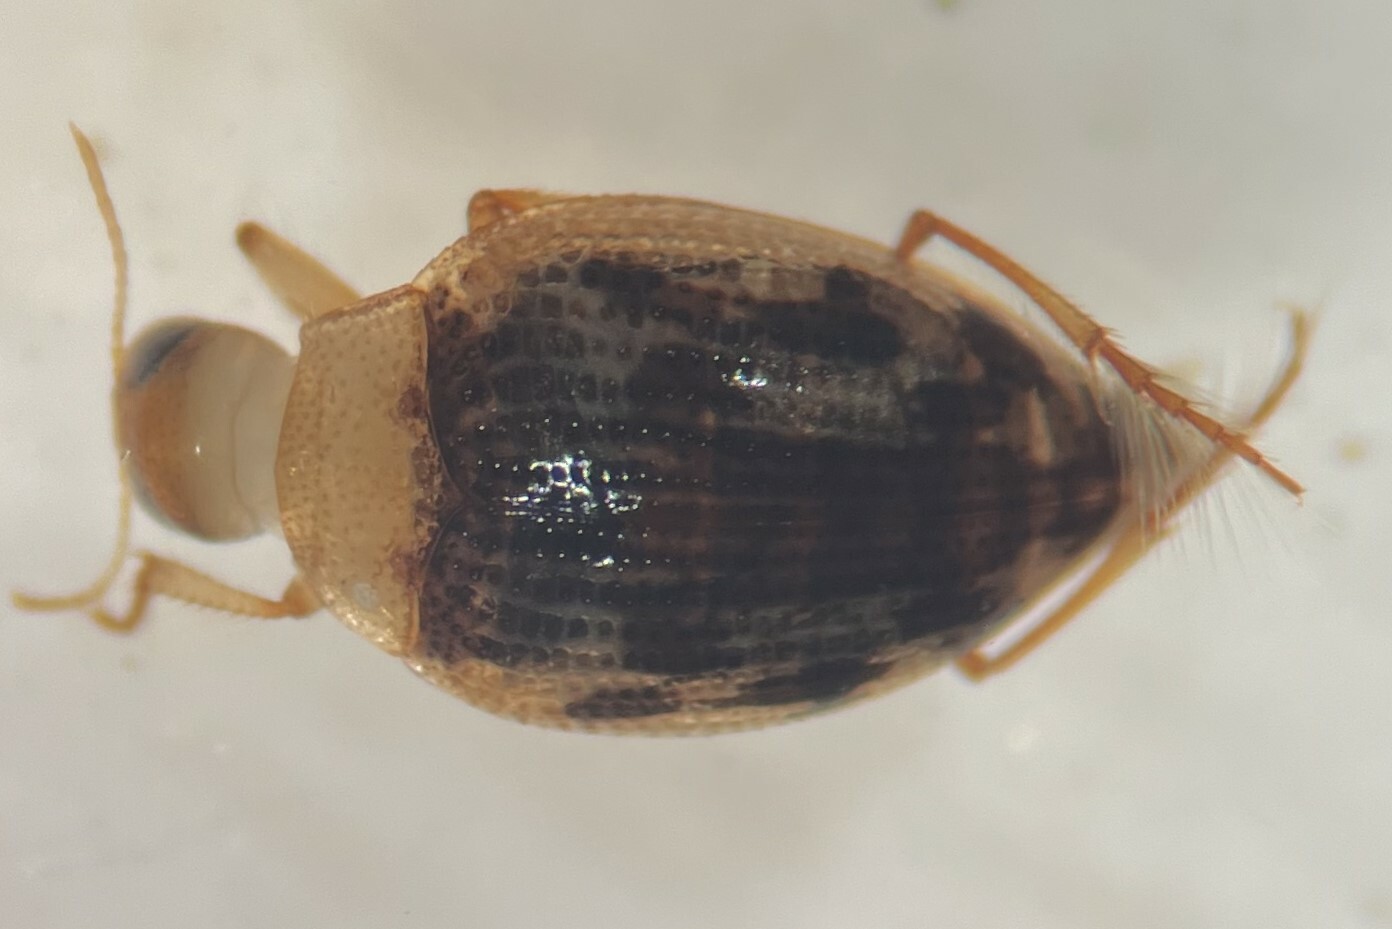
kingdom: Animalia
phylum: Arthropoda
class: Insecta
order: Coleoptera
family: Haliplidae
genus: Haliplus
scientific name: Haliplus lewsii
